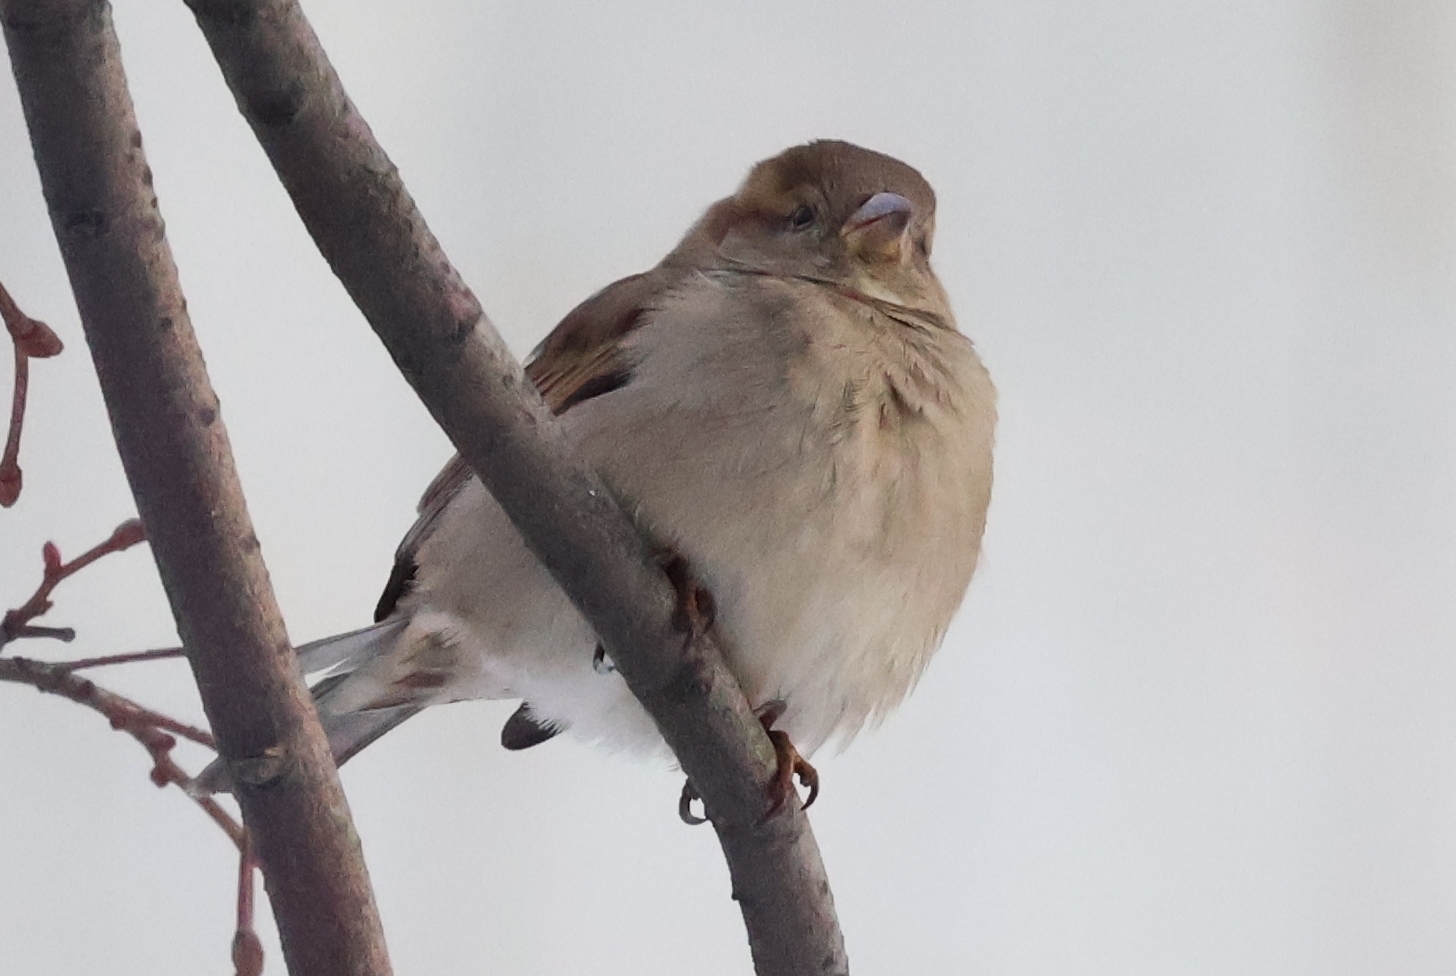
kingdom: Animalia
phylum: Chordata
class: Aves
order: Passeriformes
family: Passeridae
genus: Passer
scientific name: Passer domesticus
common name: House sparrow
